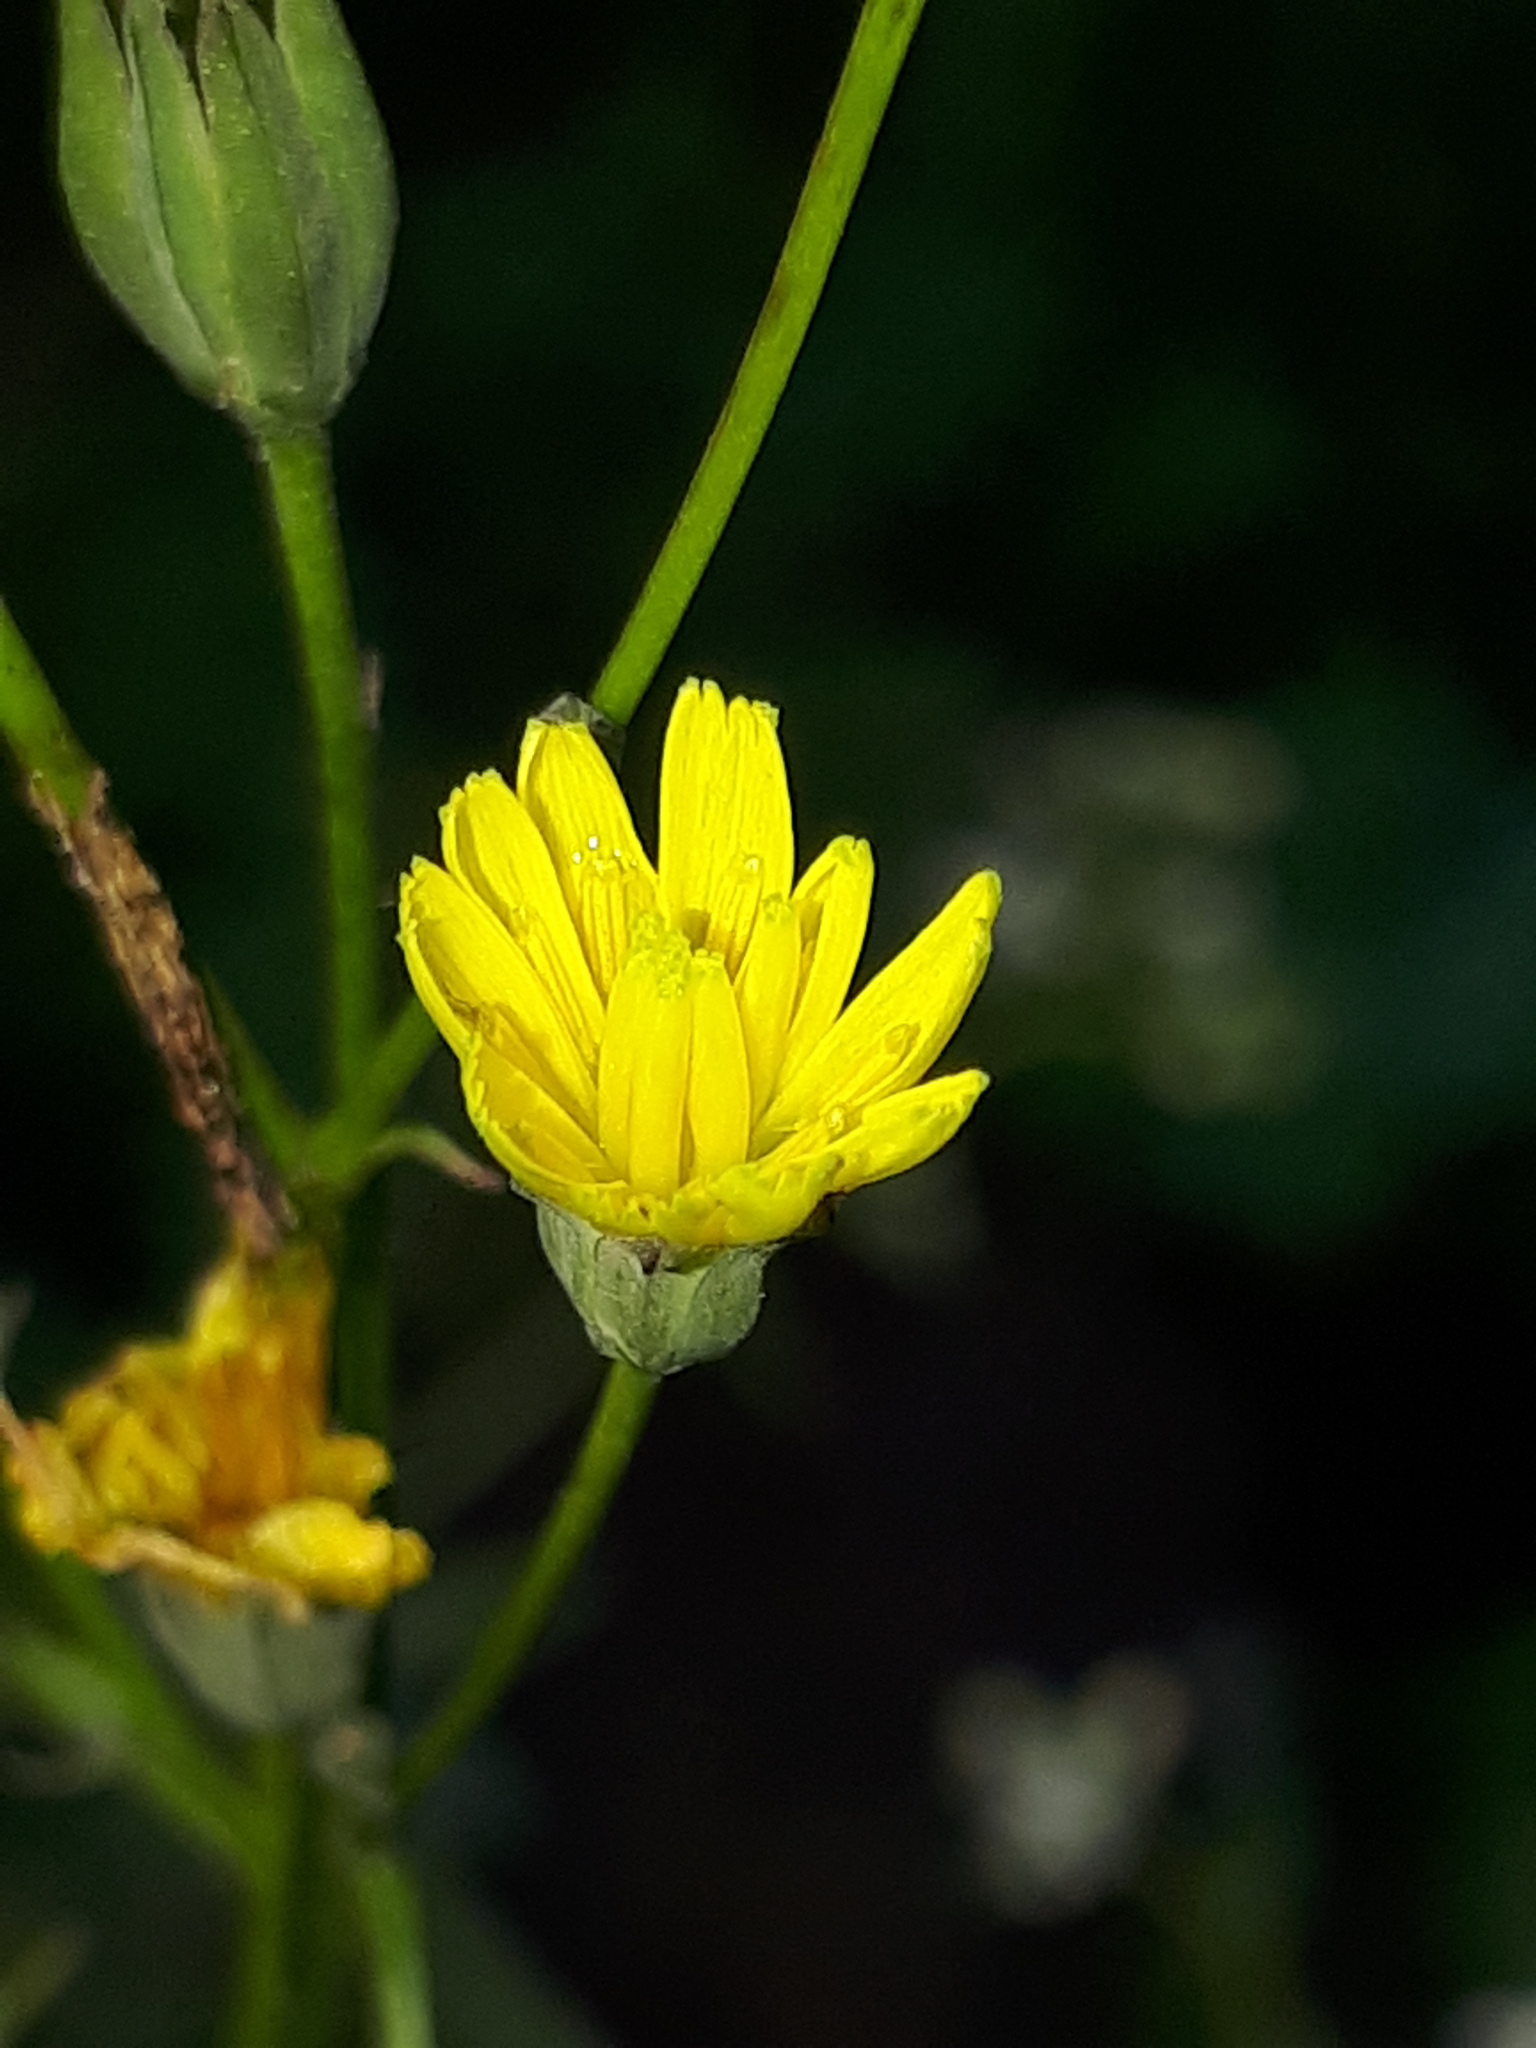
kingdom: Plantae
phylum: Tracheophyta
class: Magnoliopsida
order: Asterales
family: Asteraceae
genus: Lapsana
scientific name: Lapsana communis
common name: Nipplewort
